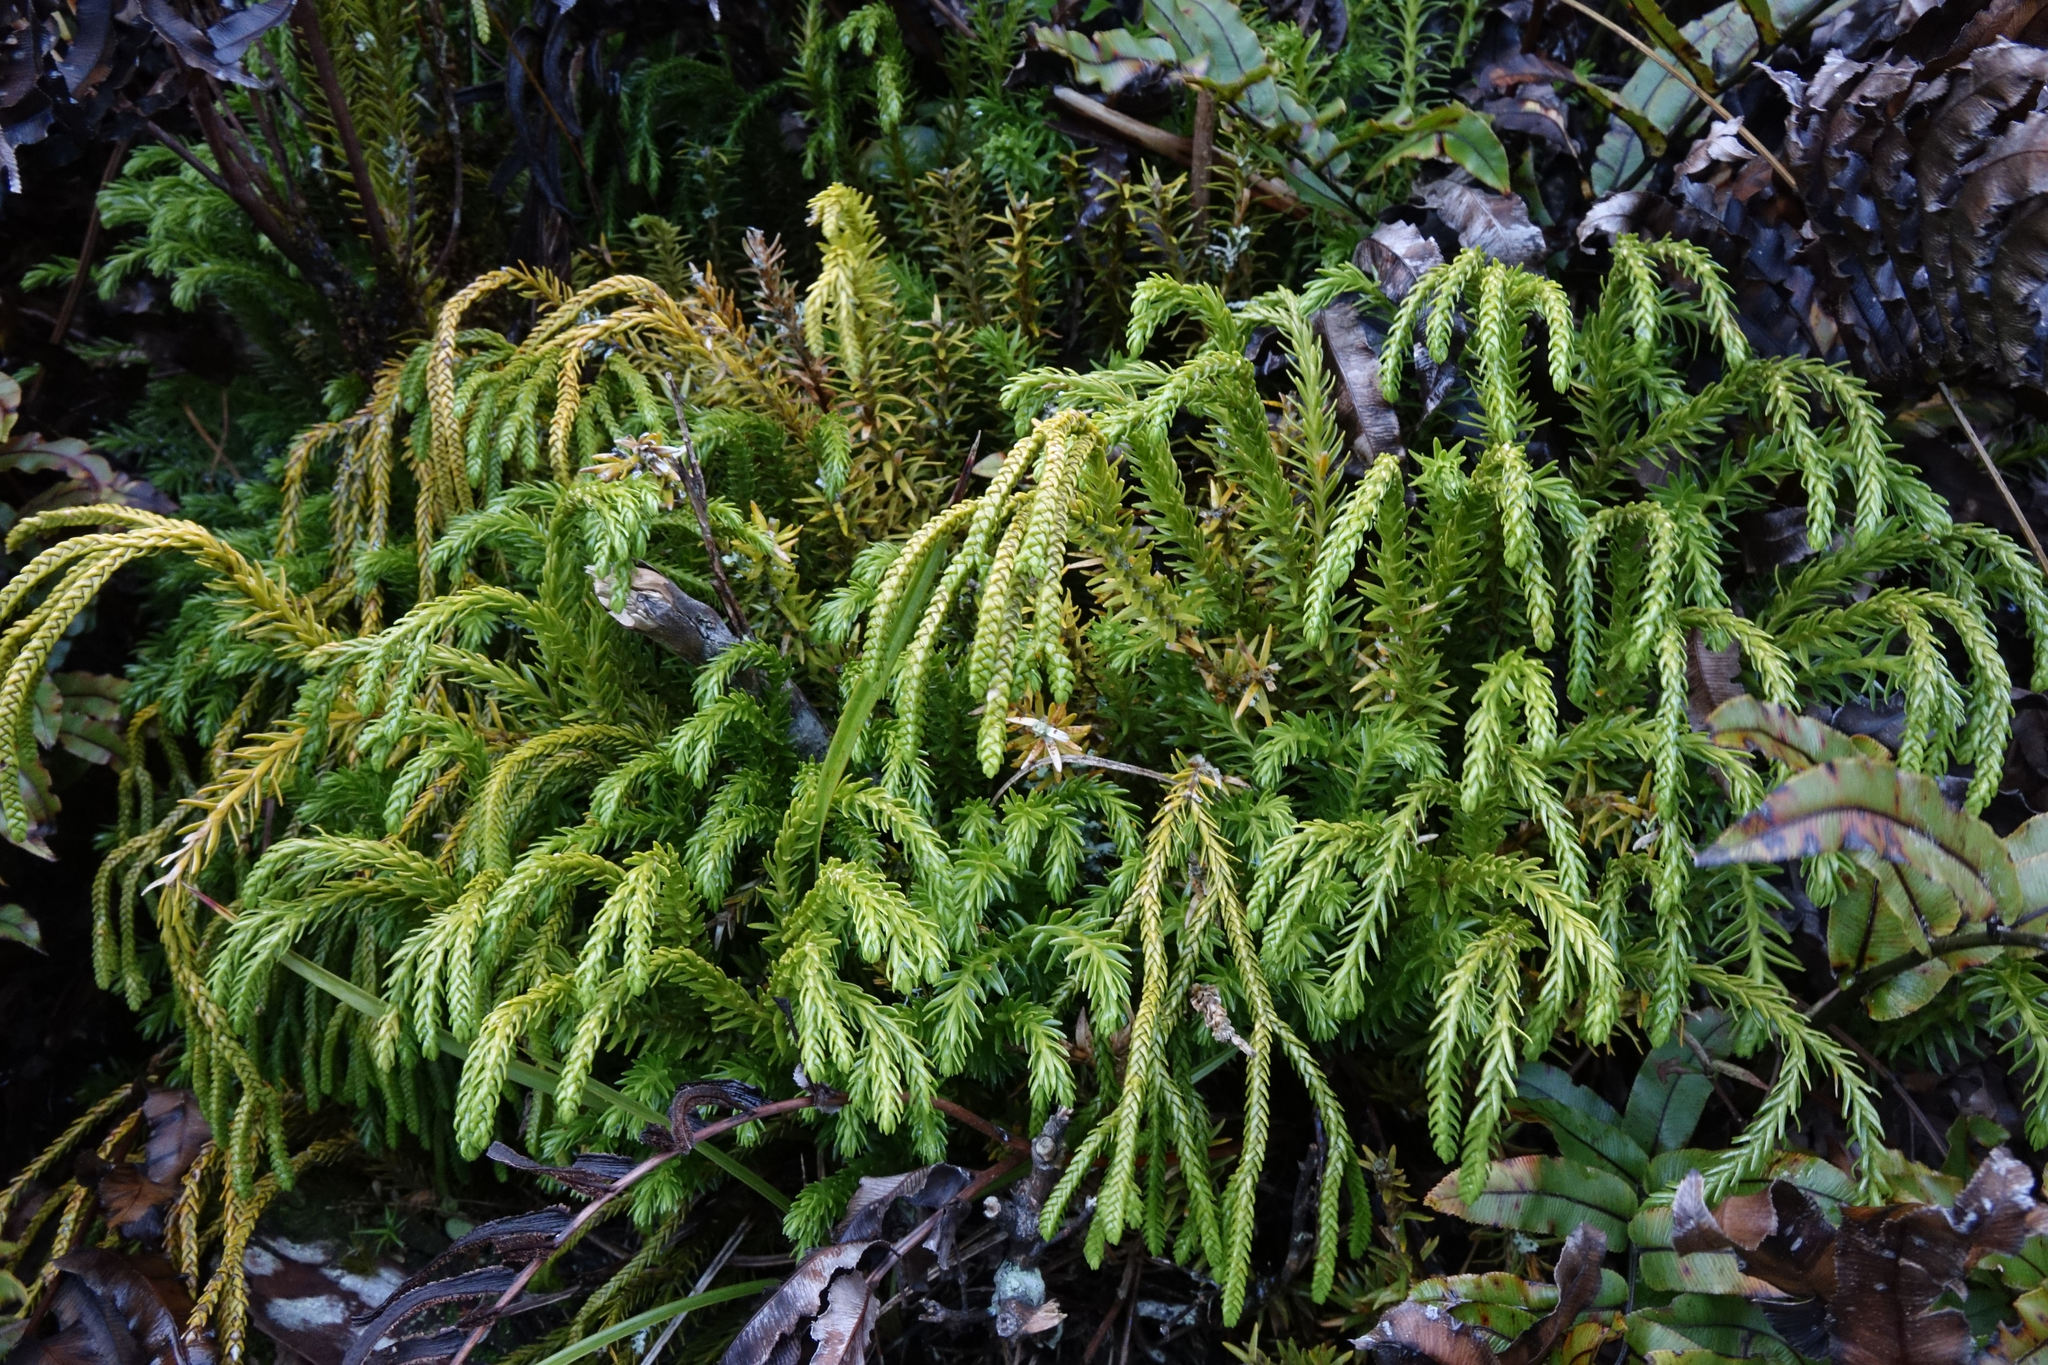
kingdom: Plantae
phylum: Tracheophyta
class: Lycopodiopsida
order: Lycopodiales
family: Lycopodiaceae
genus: Phlegmariurus
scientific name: Phlegmariurus varius
